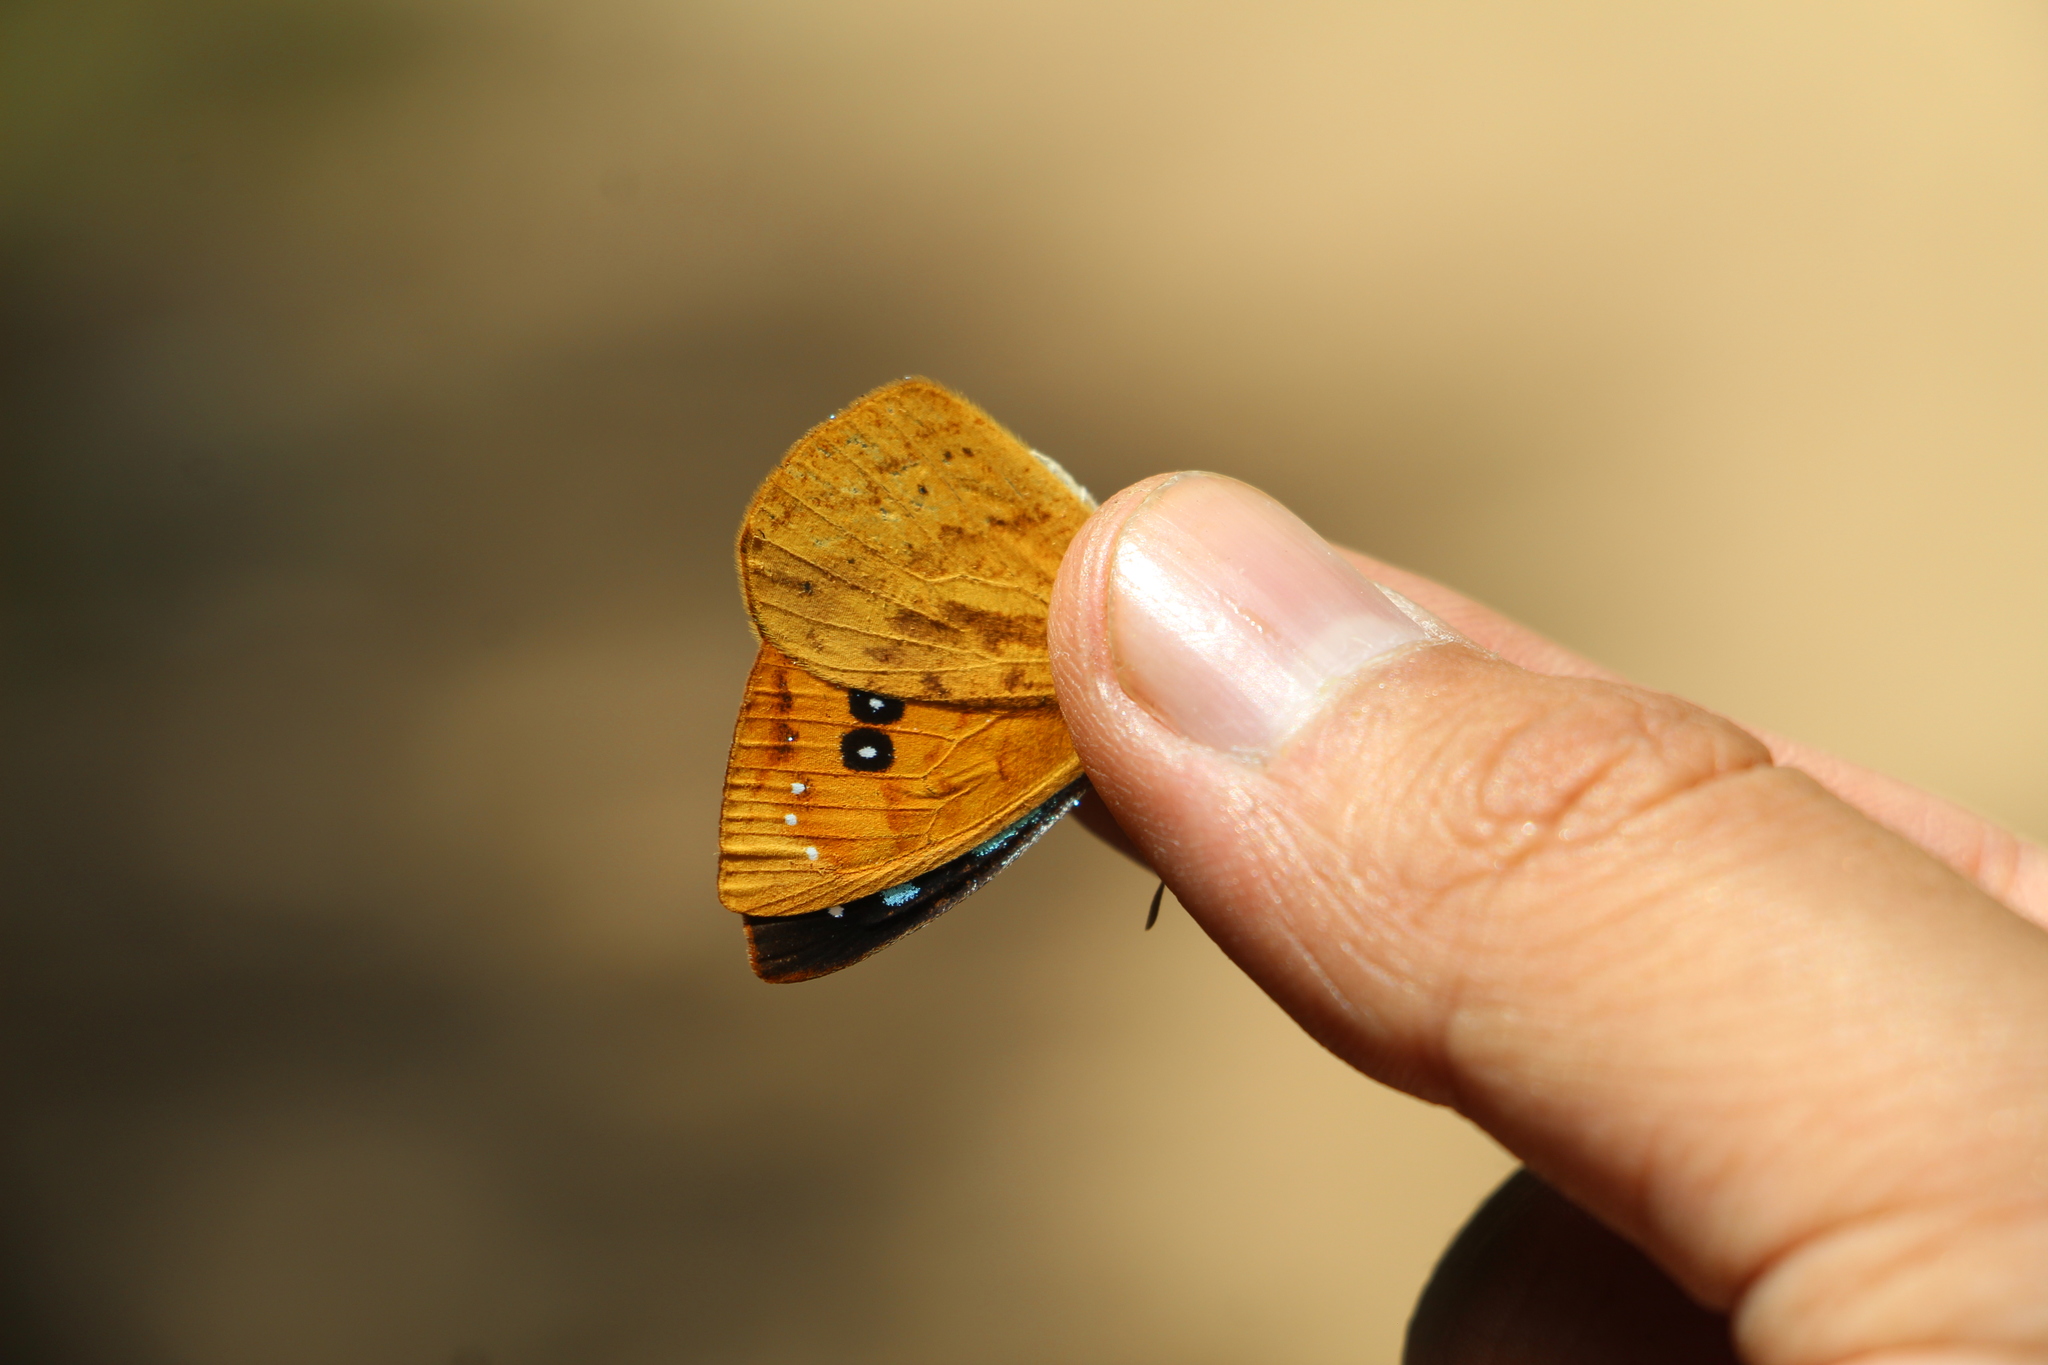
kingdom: Animalia
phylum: Arthropoda
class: Insecta
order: Lepidoptera
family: Nymphalidae
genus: Lymanopoda
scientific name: Lymanopoda samius
